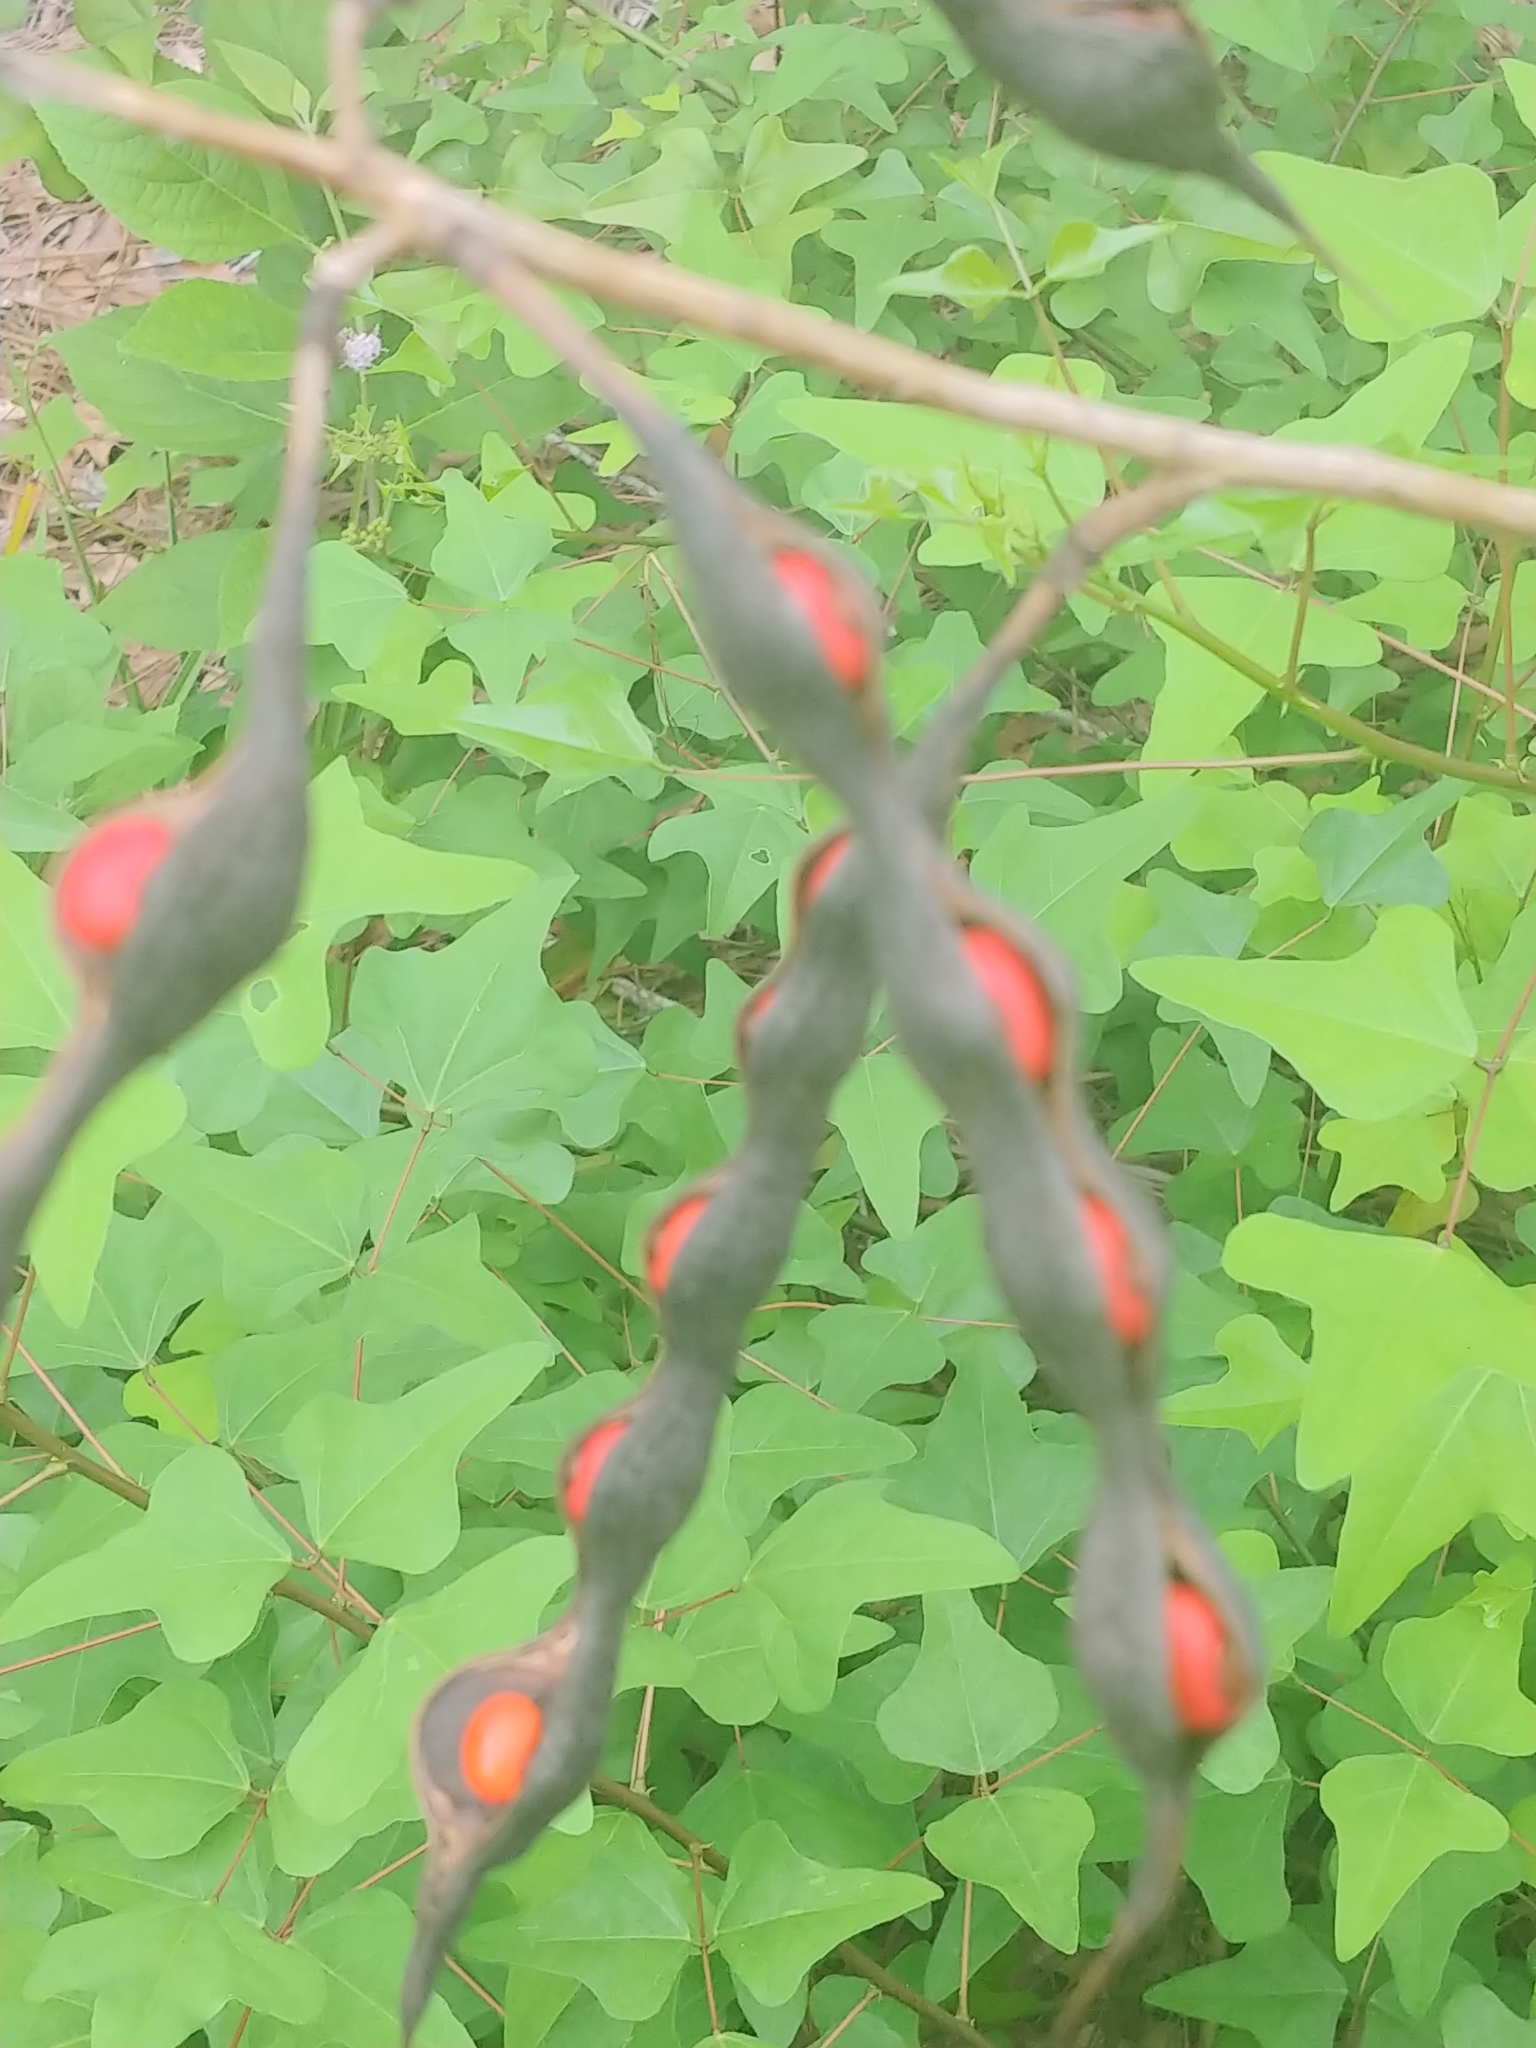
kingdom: Plantae
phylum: Tracheophyta
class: Magnoliopsida
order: Fabales
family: Fabaceae
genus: Erythrina
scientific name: Erythrina herbacea
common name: Coral-bean
